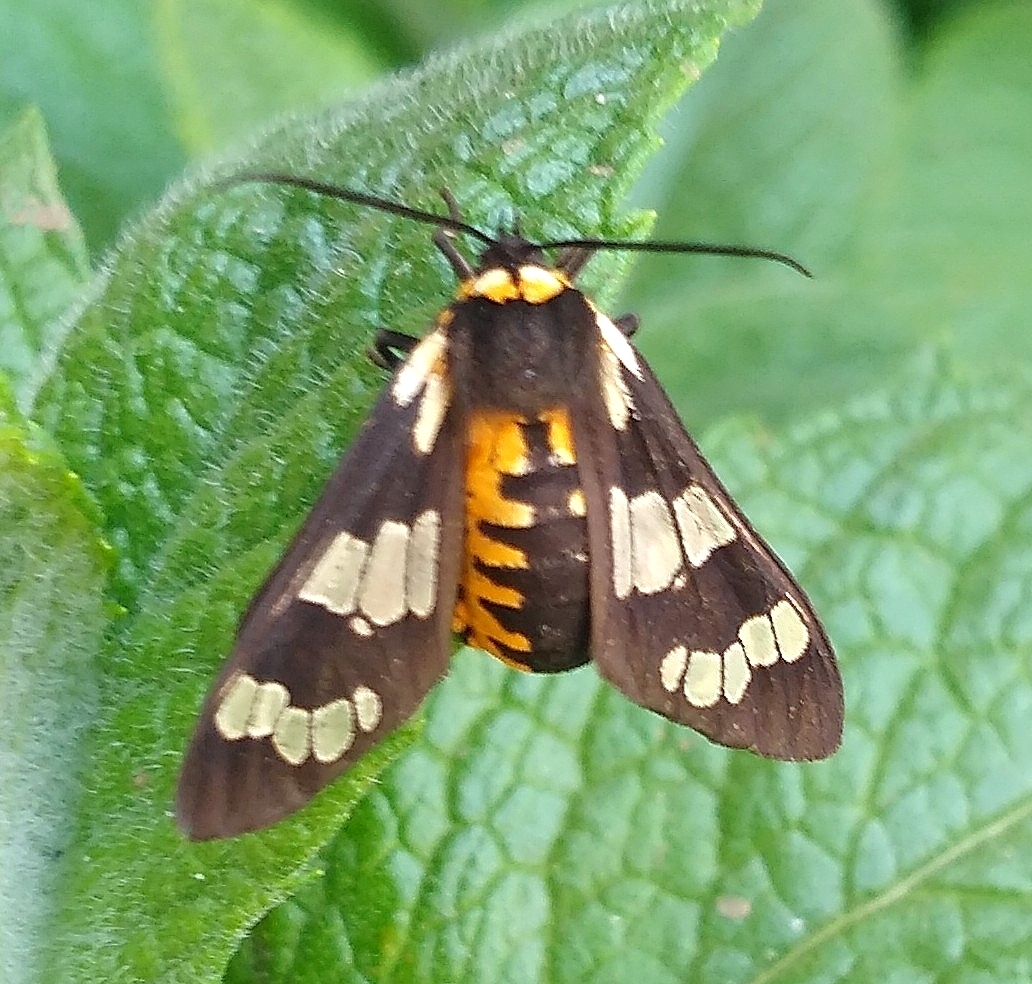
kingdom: Animalia
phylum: Arthropoda
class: Insecta
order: Lepidoptera
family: Erebidae
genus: Eurata
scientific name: Eurata
